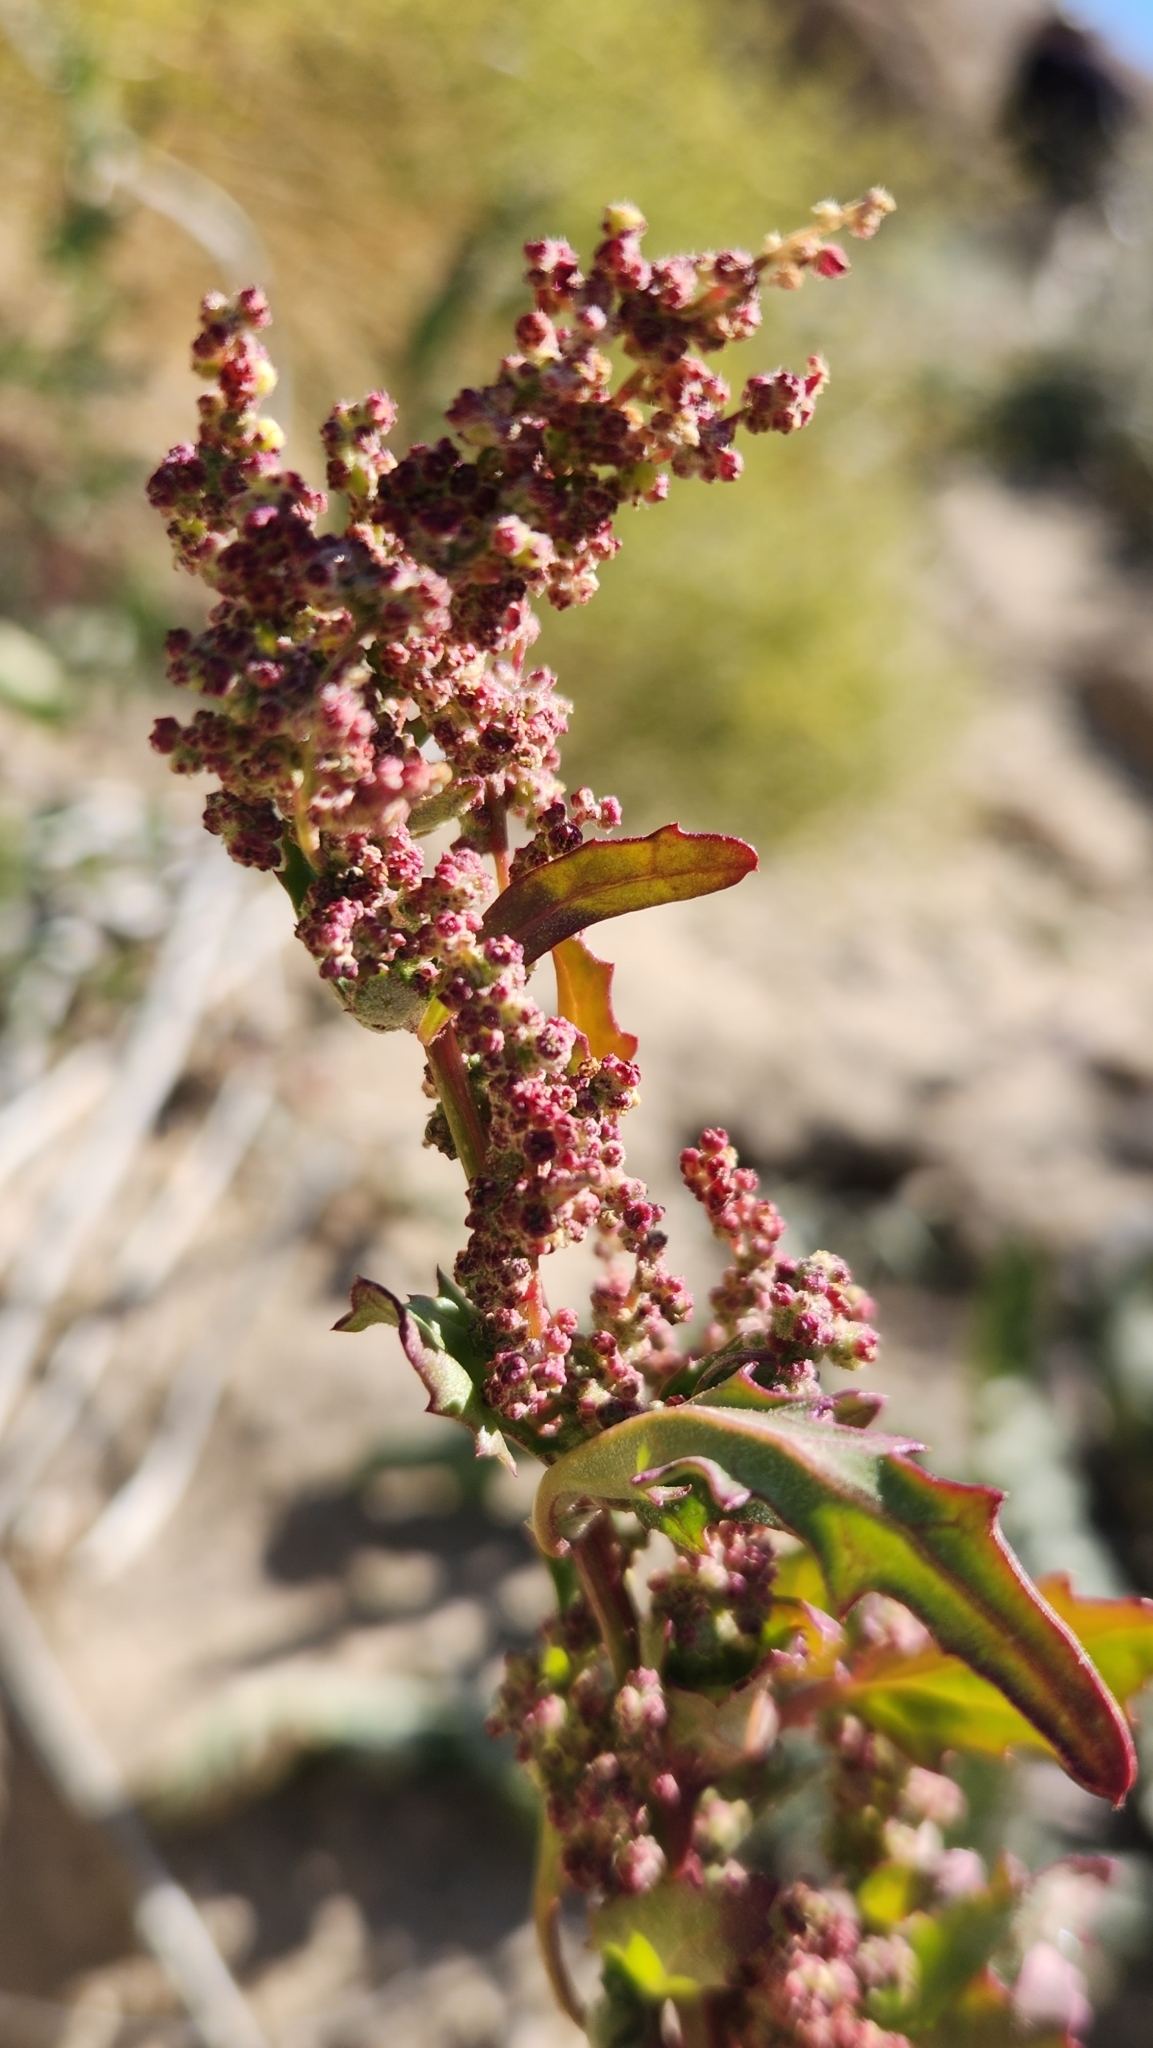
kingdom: Plantae
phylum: Tracheophyta
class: Magnoliopsida
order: Caryophyllales
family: Amaranthaceae
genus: Chenopodiastrum
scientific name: Chenopodiastrum murale
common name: Sowbane
